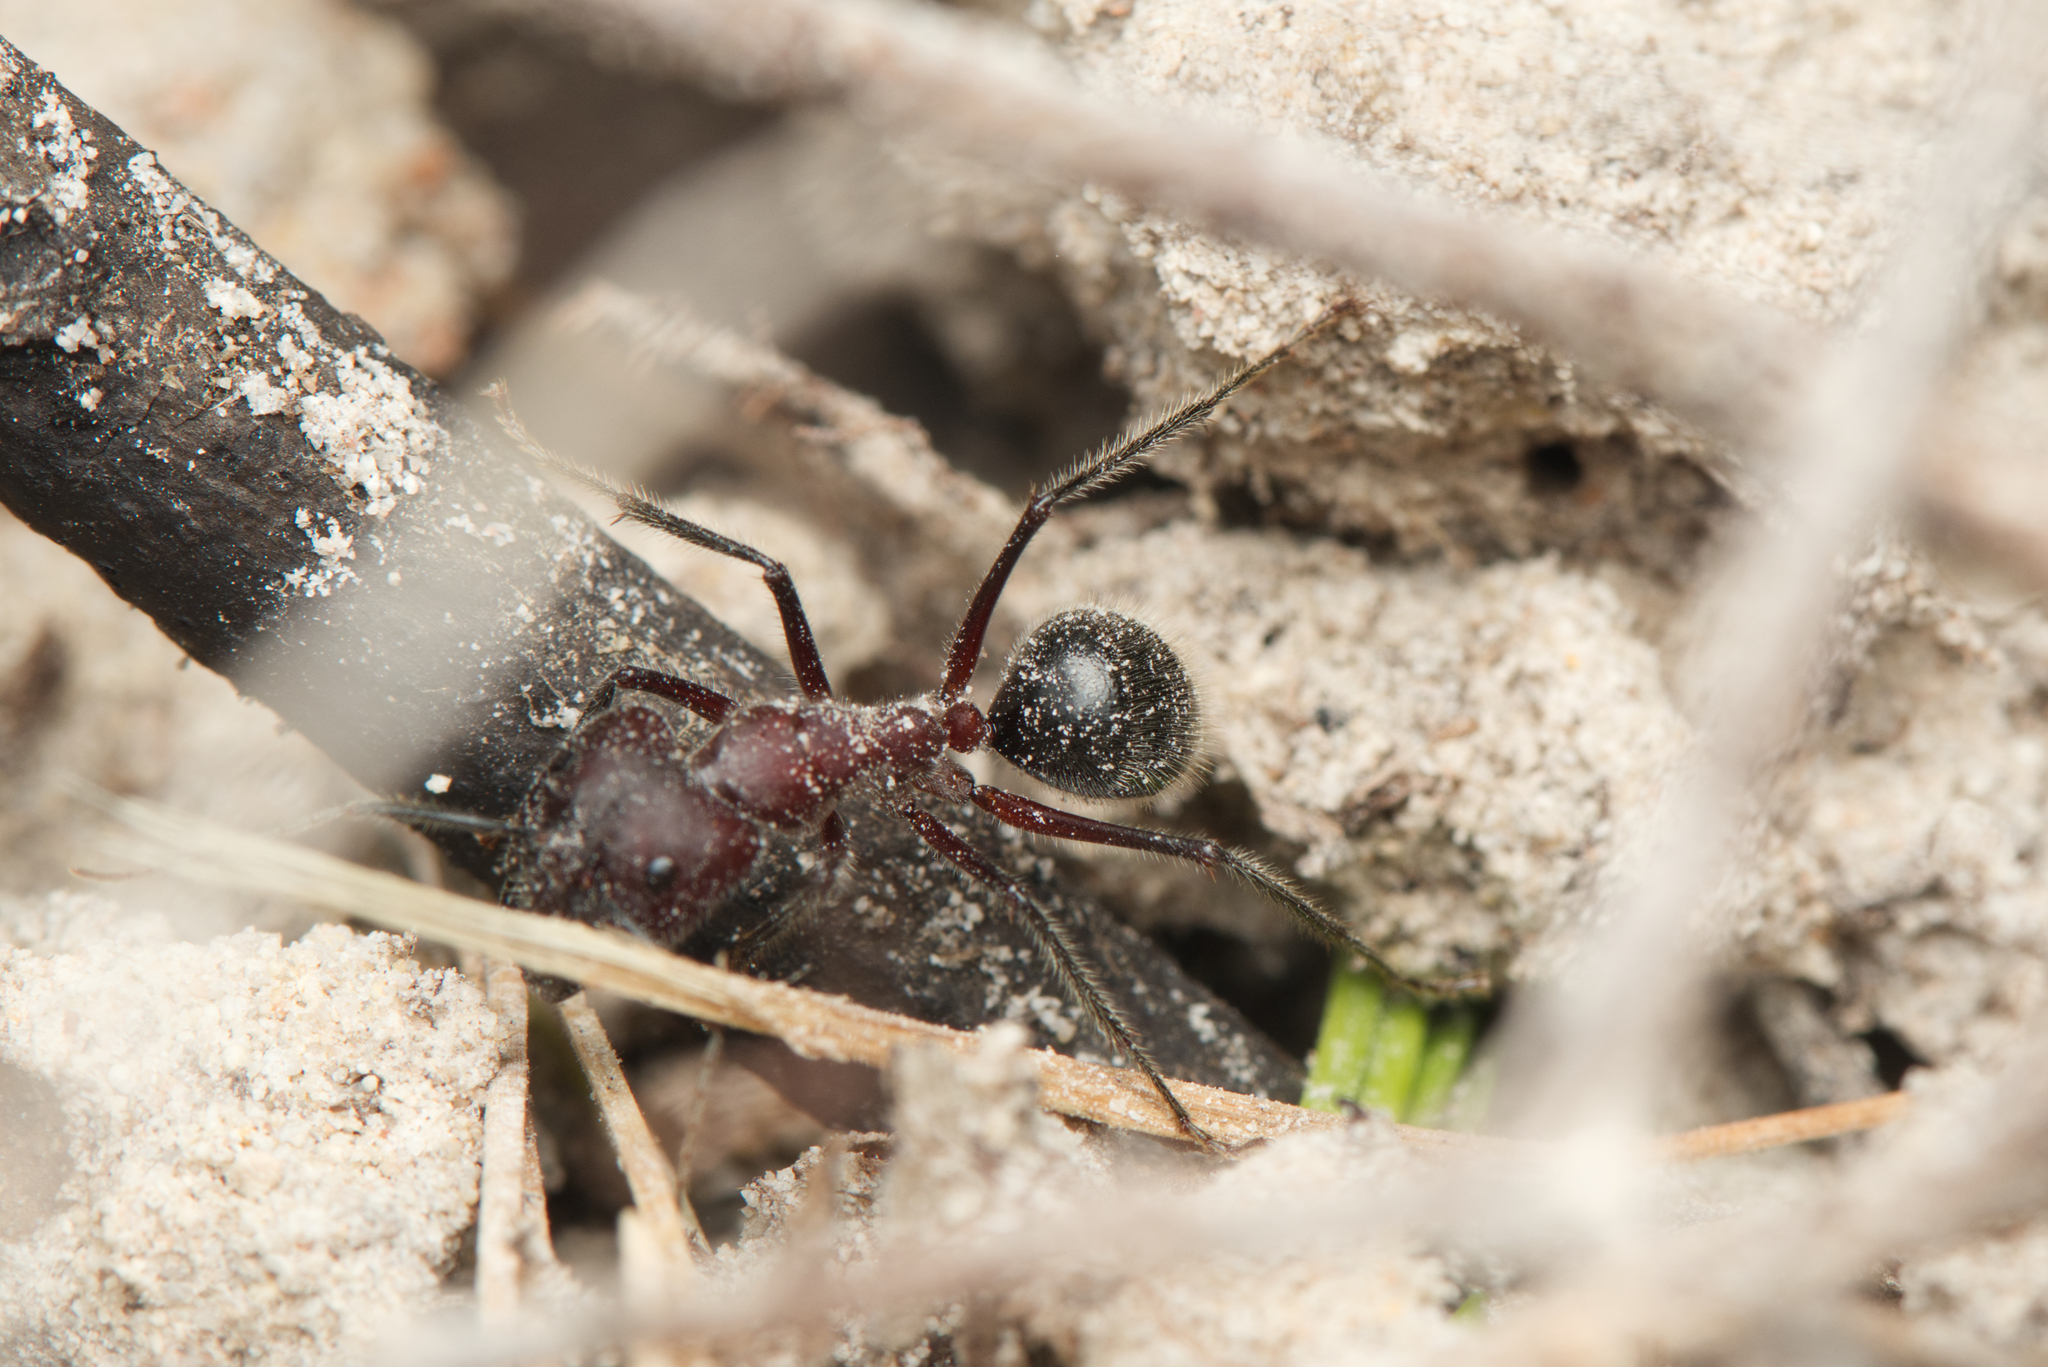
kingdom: Animalia
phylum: Arthropoda
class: Insecta
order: Hymenoptera
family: Formicidae
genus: Camponotus
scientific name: Camponotus intrepidus
